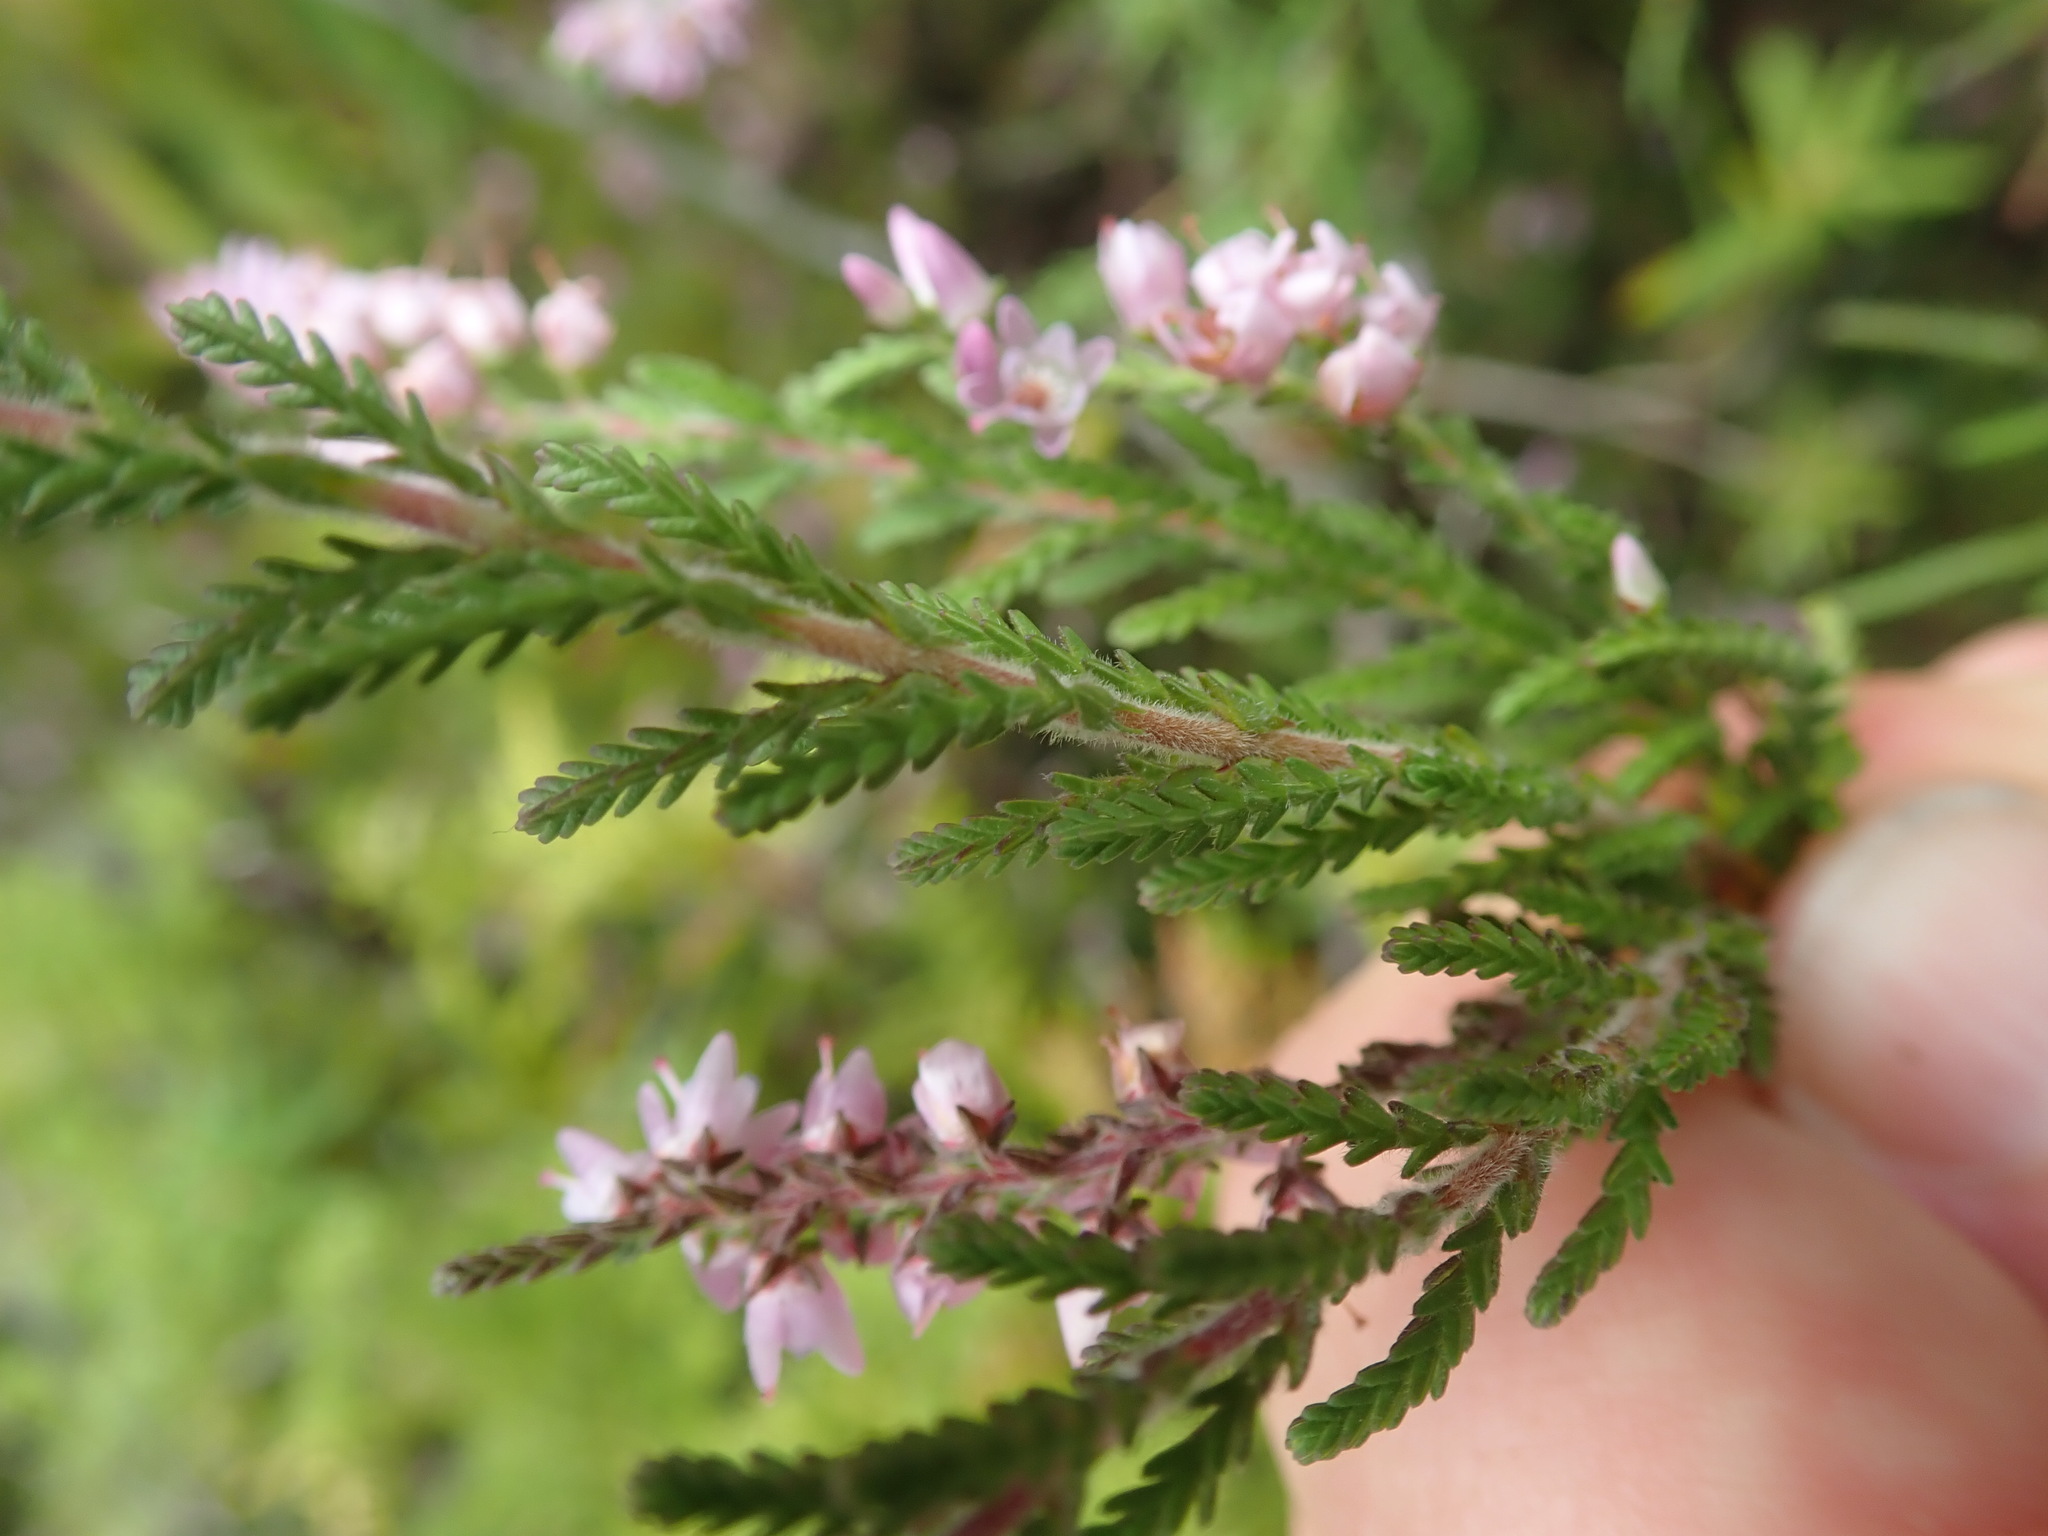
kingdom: Plantae
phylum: Tracheophyta
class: Magnoliopsida
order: Ericales
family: Ericaceae
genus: Calluna
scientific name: Calluna vulgaris
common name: Heather
